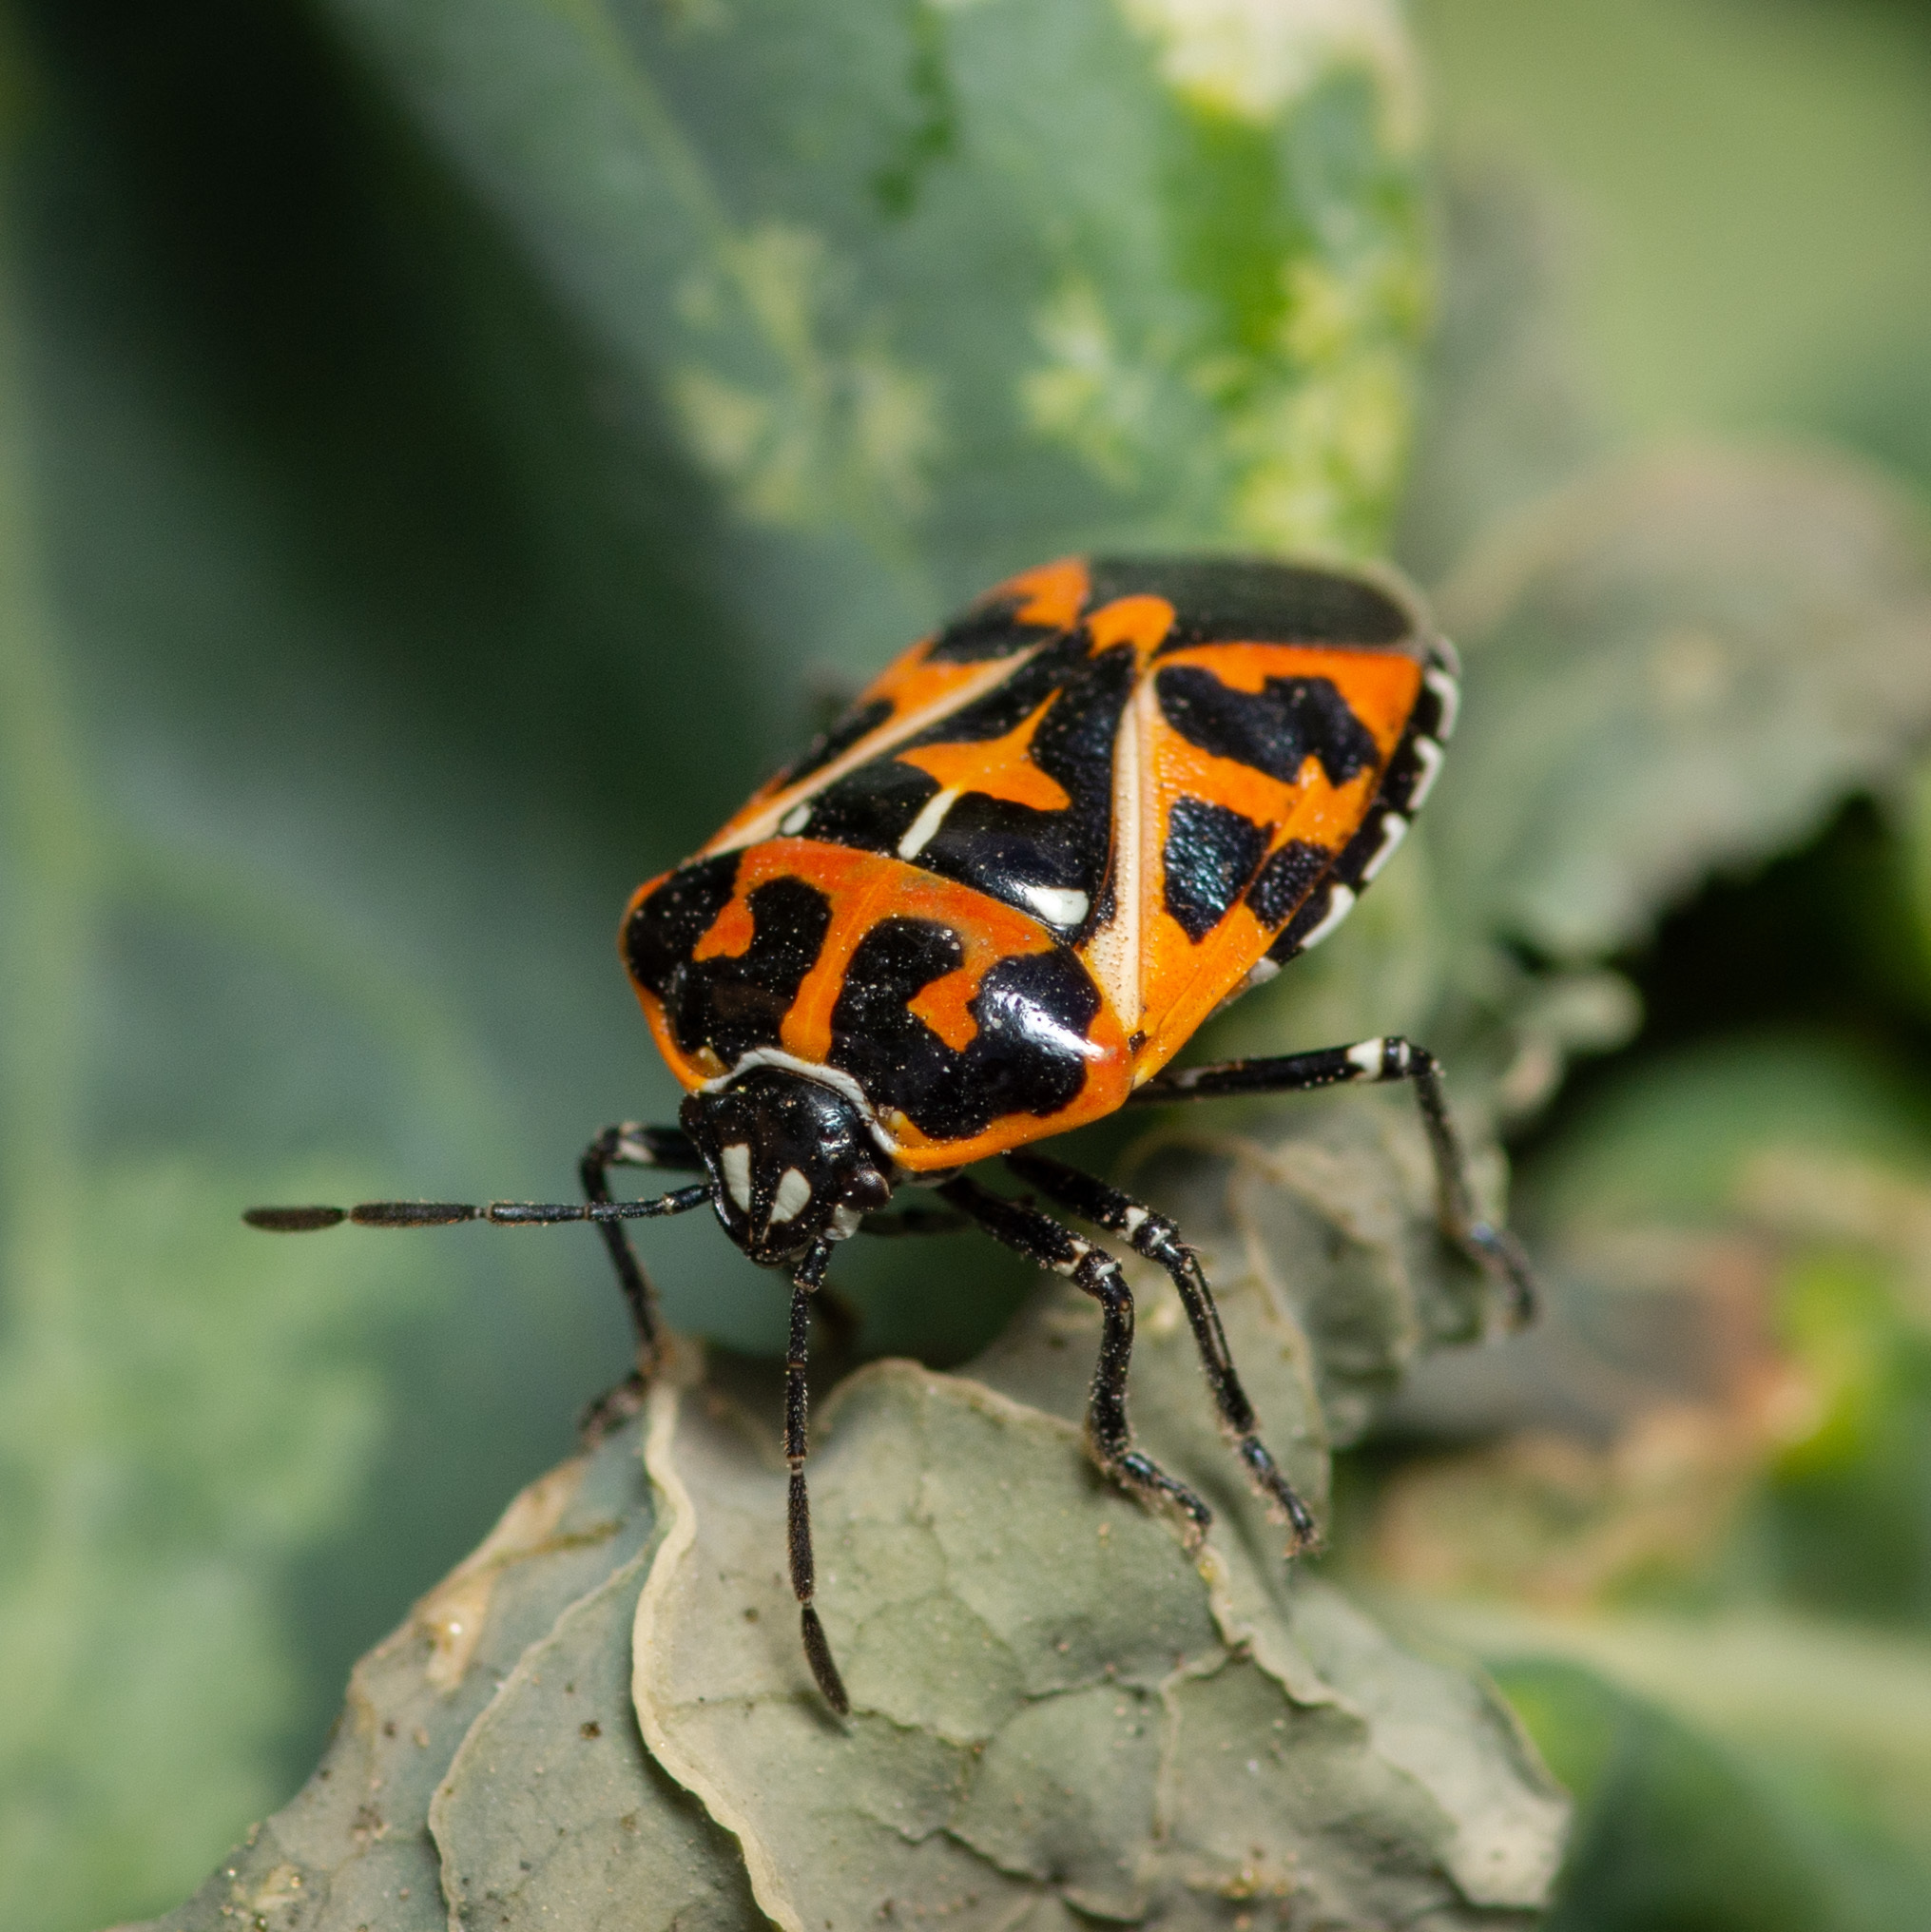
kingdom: Animalia
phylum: Arthropoda
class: Insecta
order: Hemiptera
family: Pentatomidae
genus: Murgantia
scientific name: Murgantia histrionica
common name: Harlequin bug
